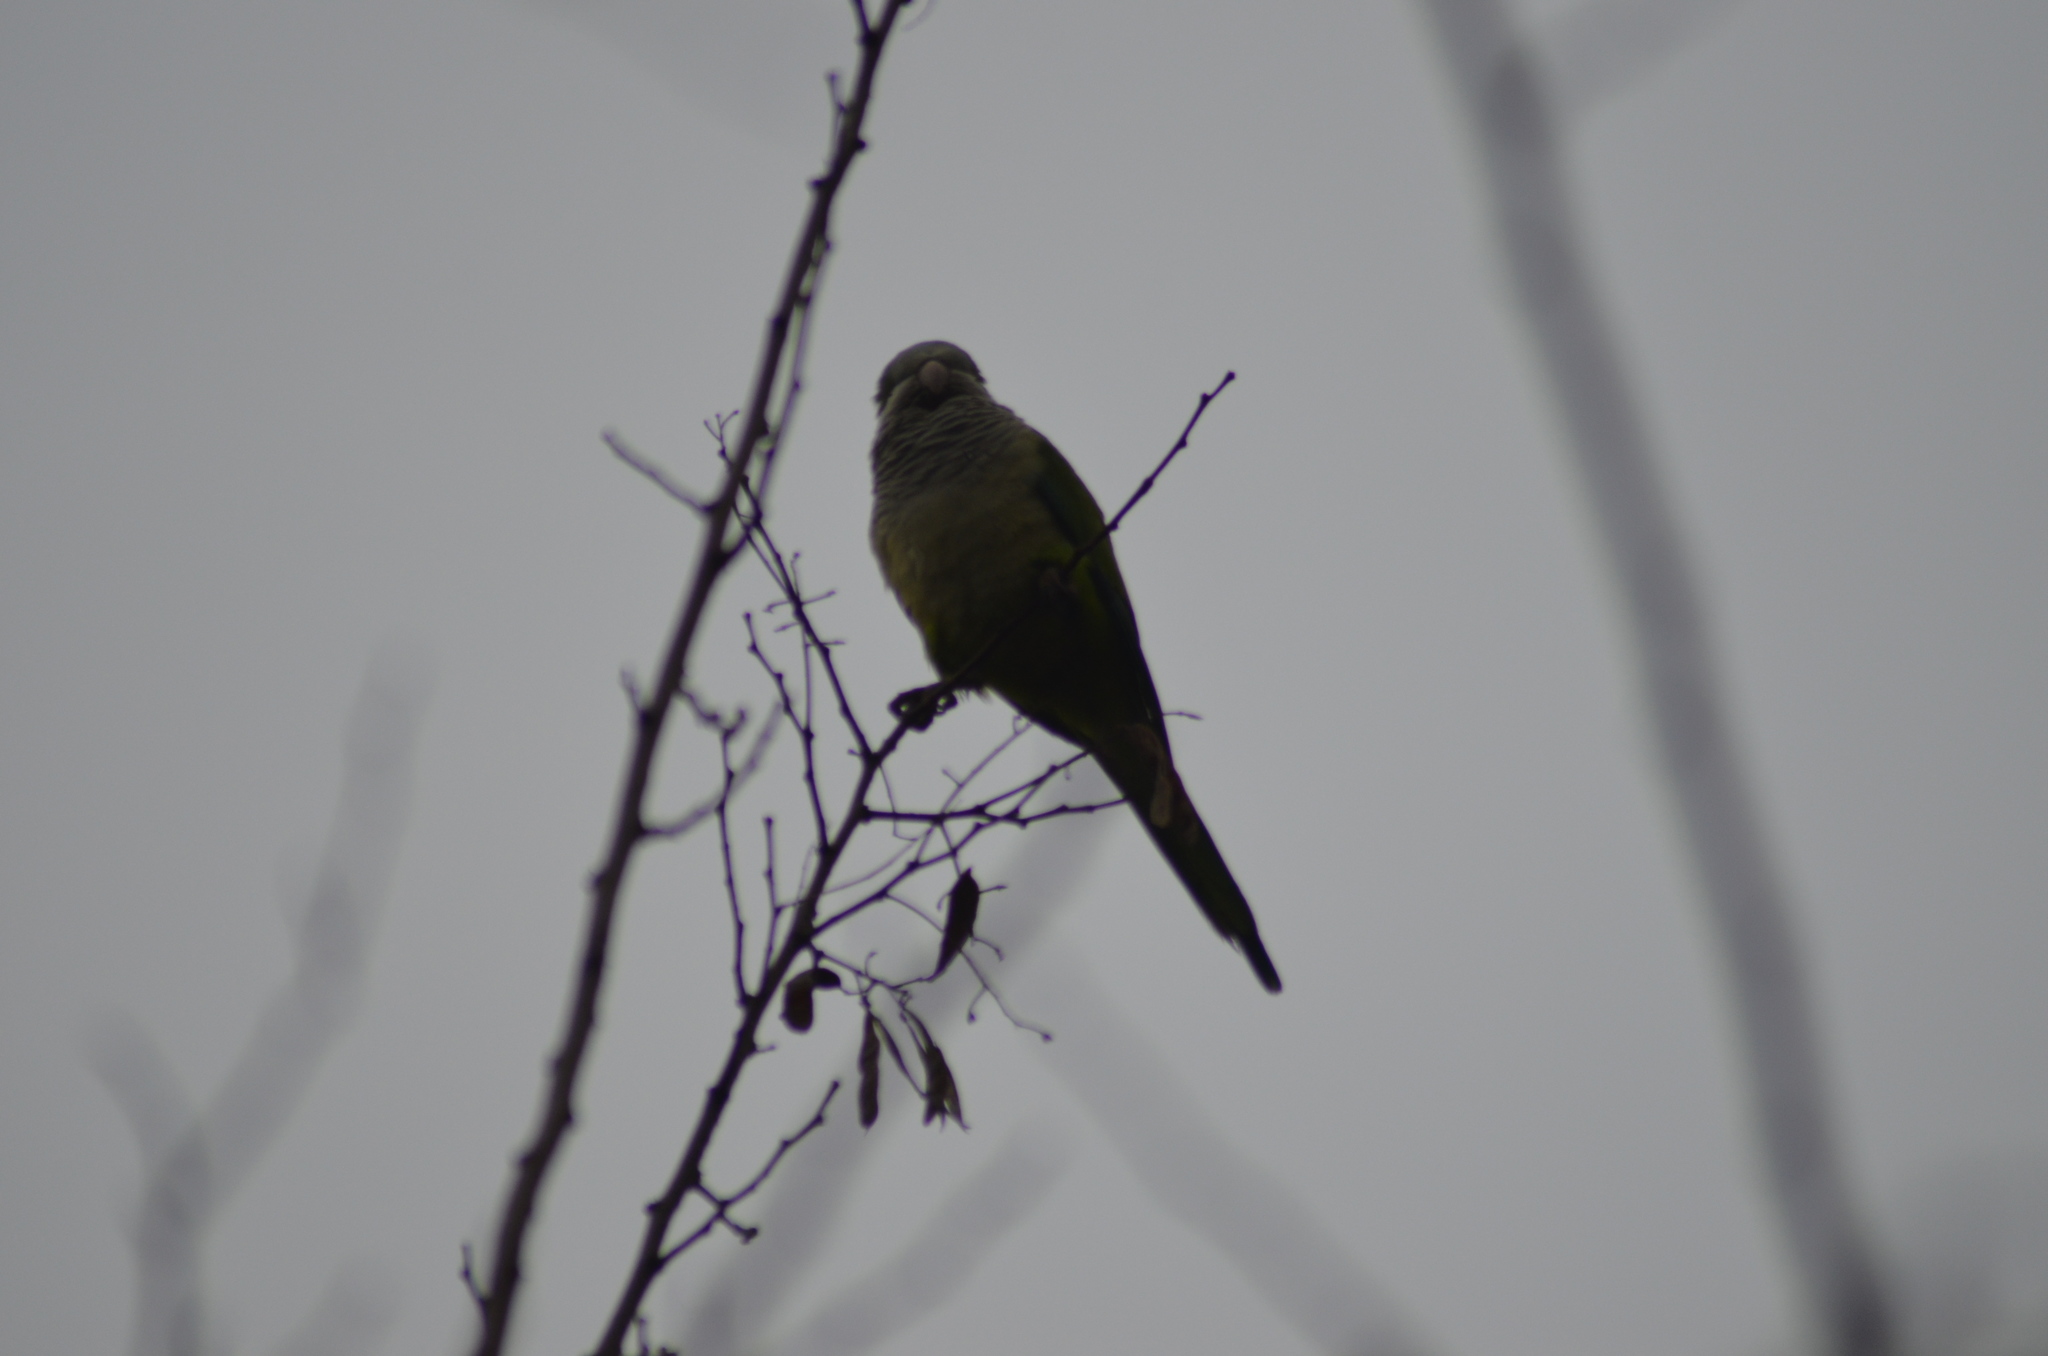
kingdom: Animalia
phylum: Chordata
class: Aves
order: Psittaciformes
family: Psittacidae
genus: Myiopsitta
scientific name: Myiopsitta monachus
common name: Monk parakeet
